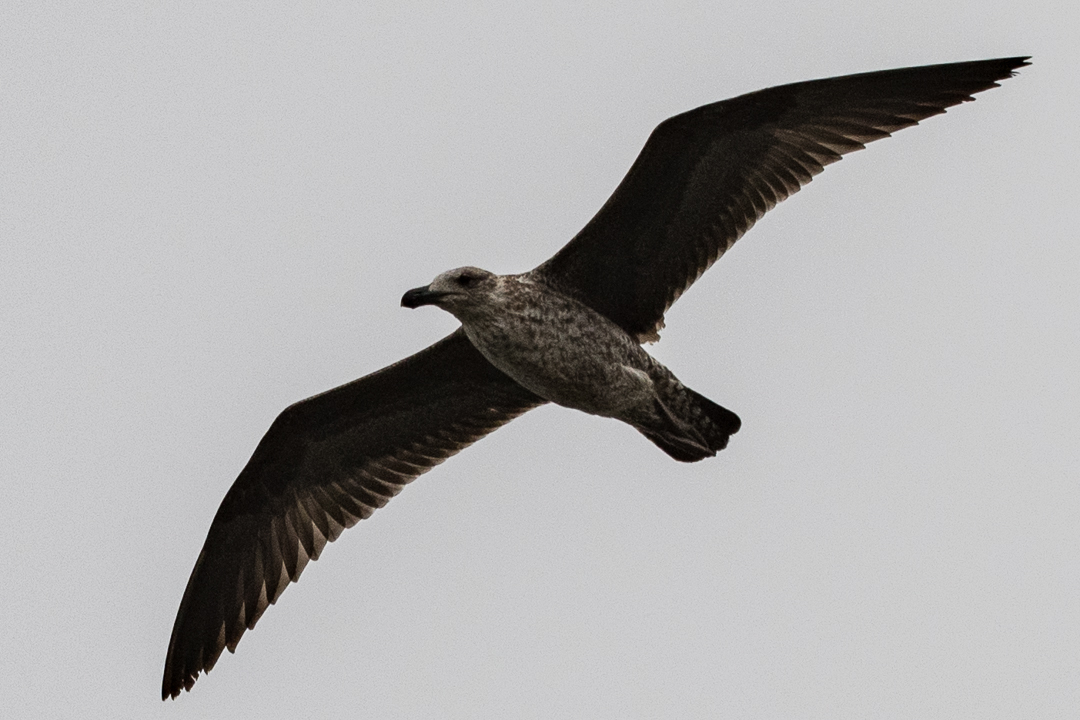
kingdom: Animalia
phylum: Chordata
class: Aves
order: Charadriiformes
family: Laridae
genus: Larus
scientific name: Larus dominicanus
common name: Kelp gull
